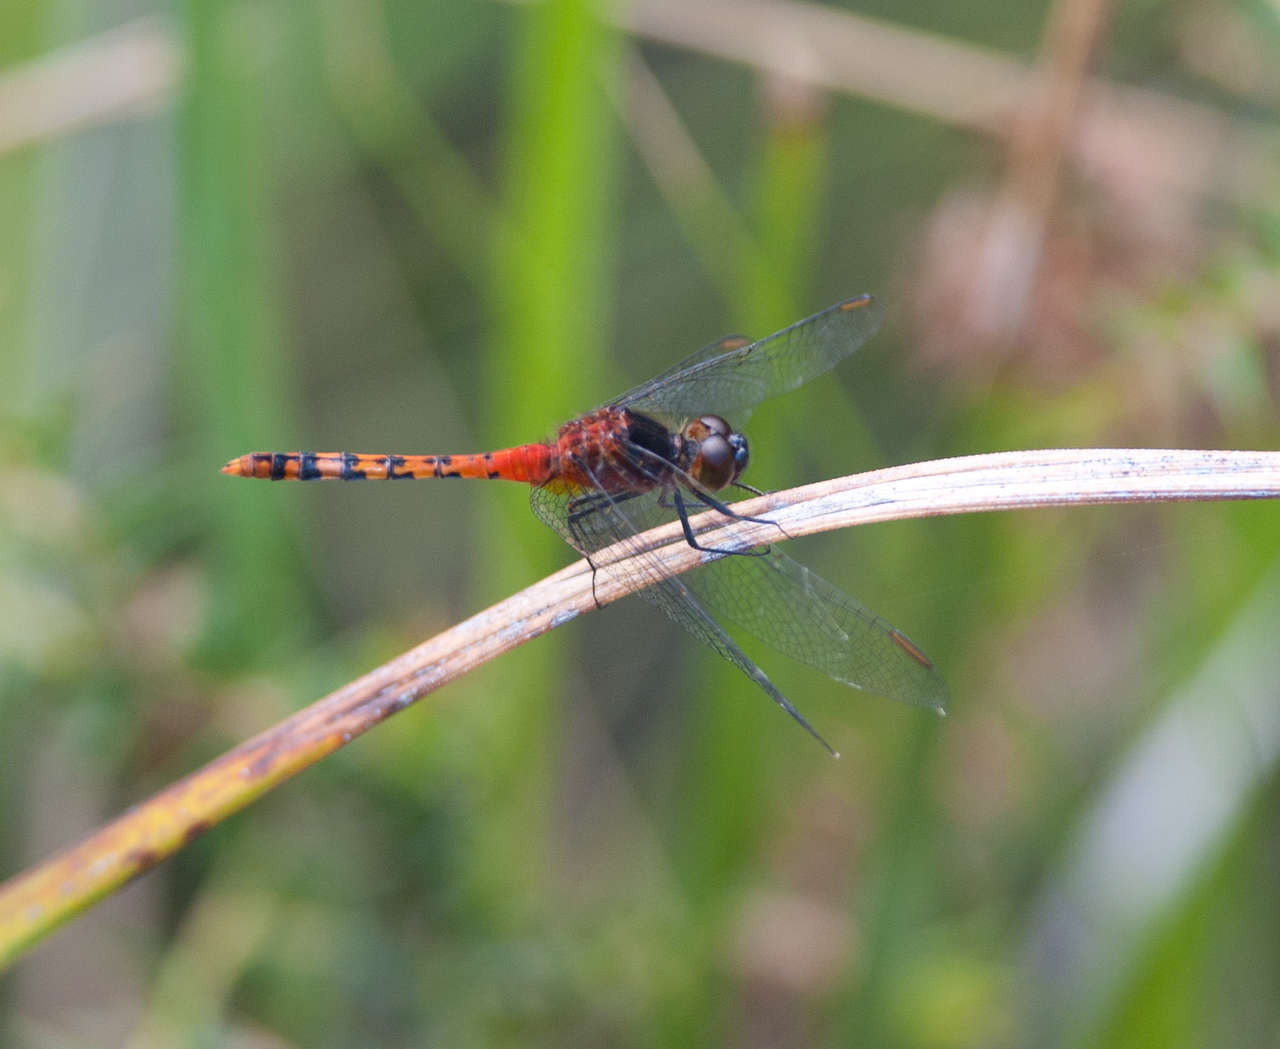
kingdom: Animalia
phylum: Arthropoda
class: Insecta
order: Odonata
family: Libellulidae
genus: Diplacodes
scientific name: Diplacodes melanopsis
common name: Black-faced percher
